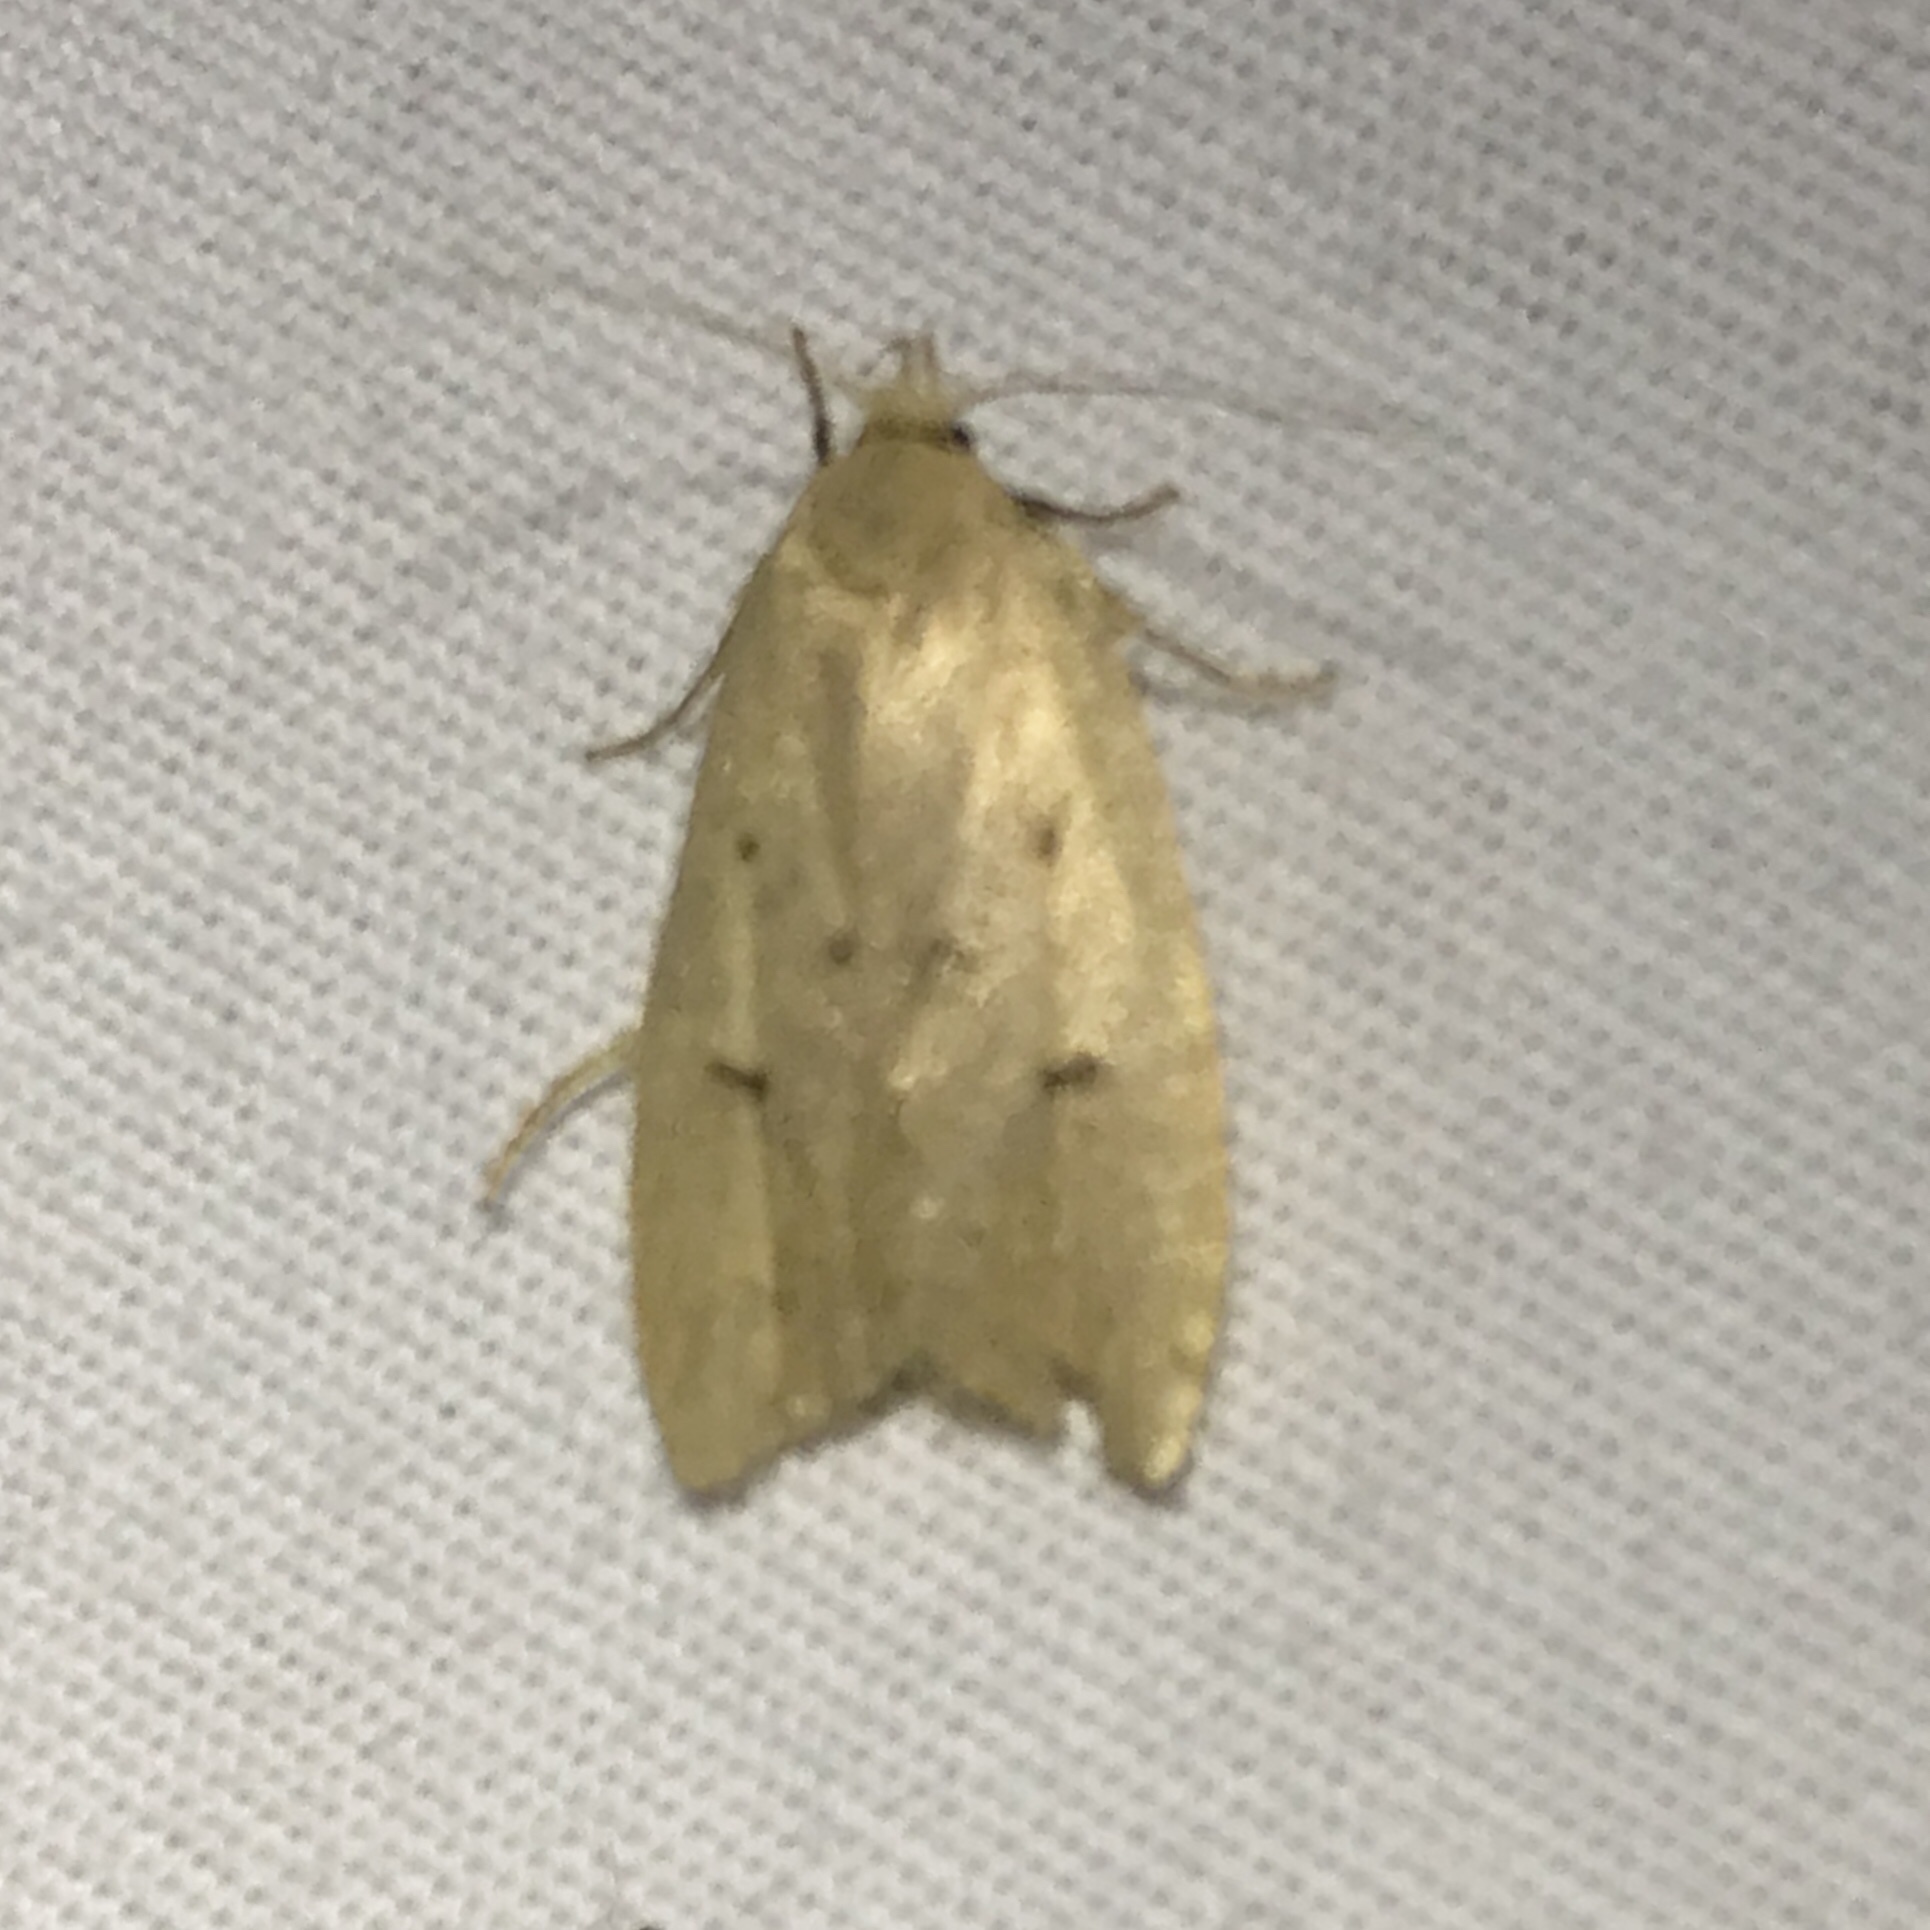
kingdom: Animalia
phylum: Arthropoda
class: Insecta
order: Lepidoptera
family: Peleopodidae
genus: Machimia
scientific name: Machimia tentoriferella
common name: Gold-striped leaftier moth
